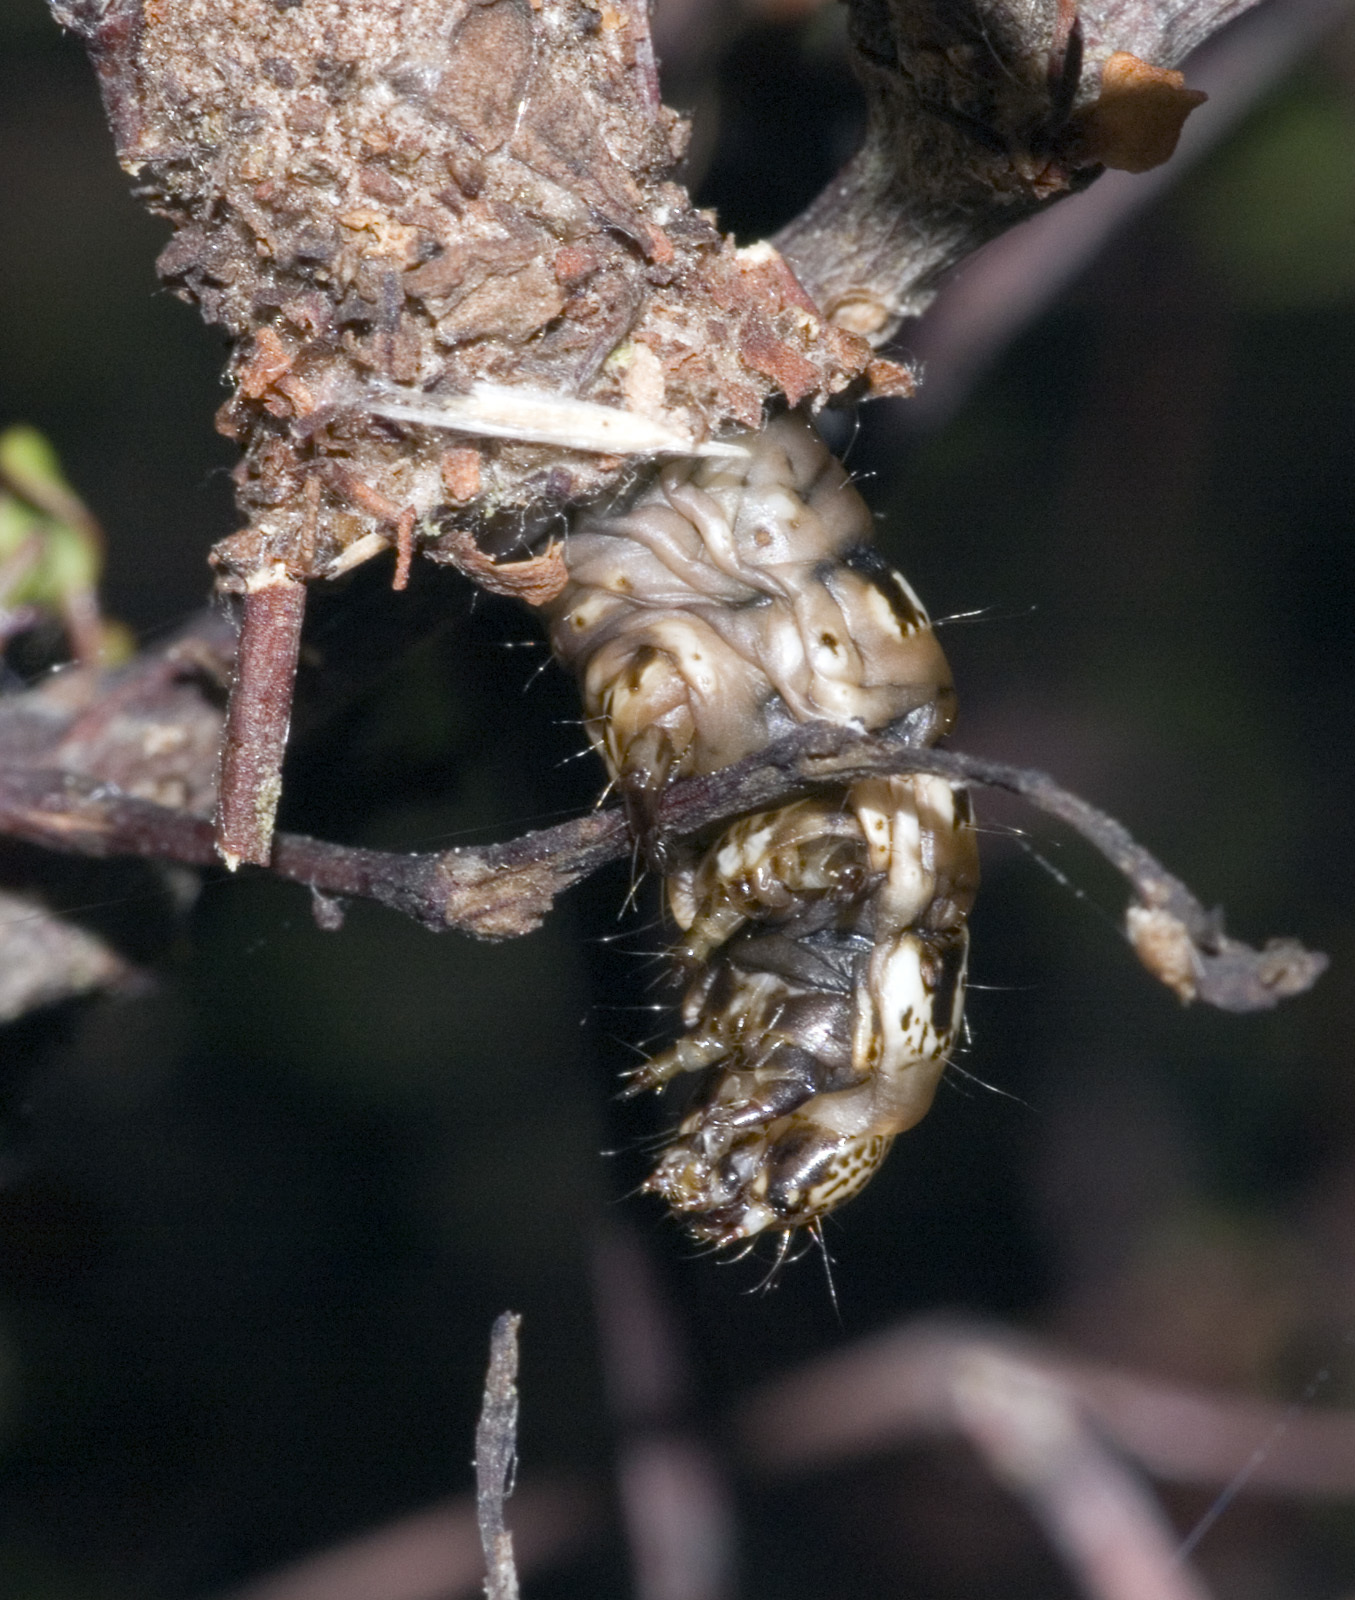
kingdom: Animalia
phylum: Arthropoda
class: Insecta
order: Lepidoptera
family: Psychidae
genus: Liothula
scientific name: Liothula omnivora
